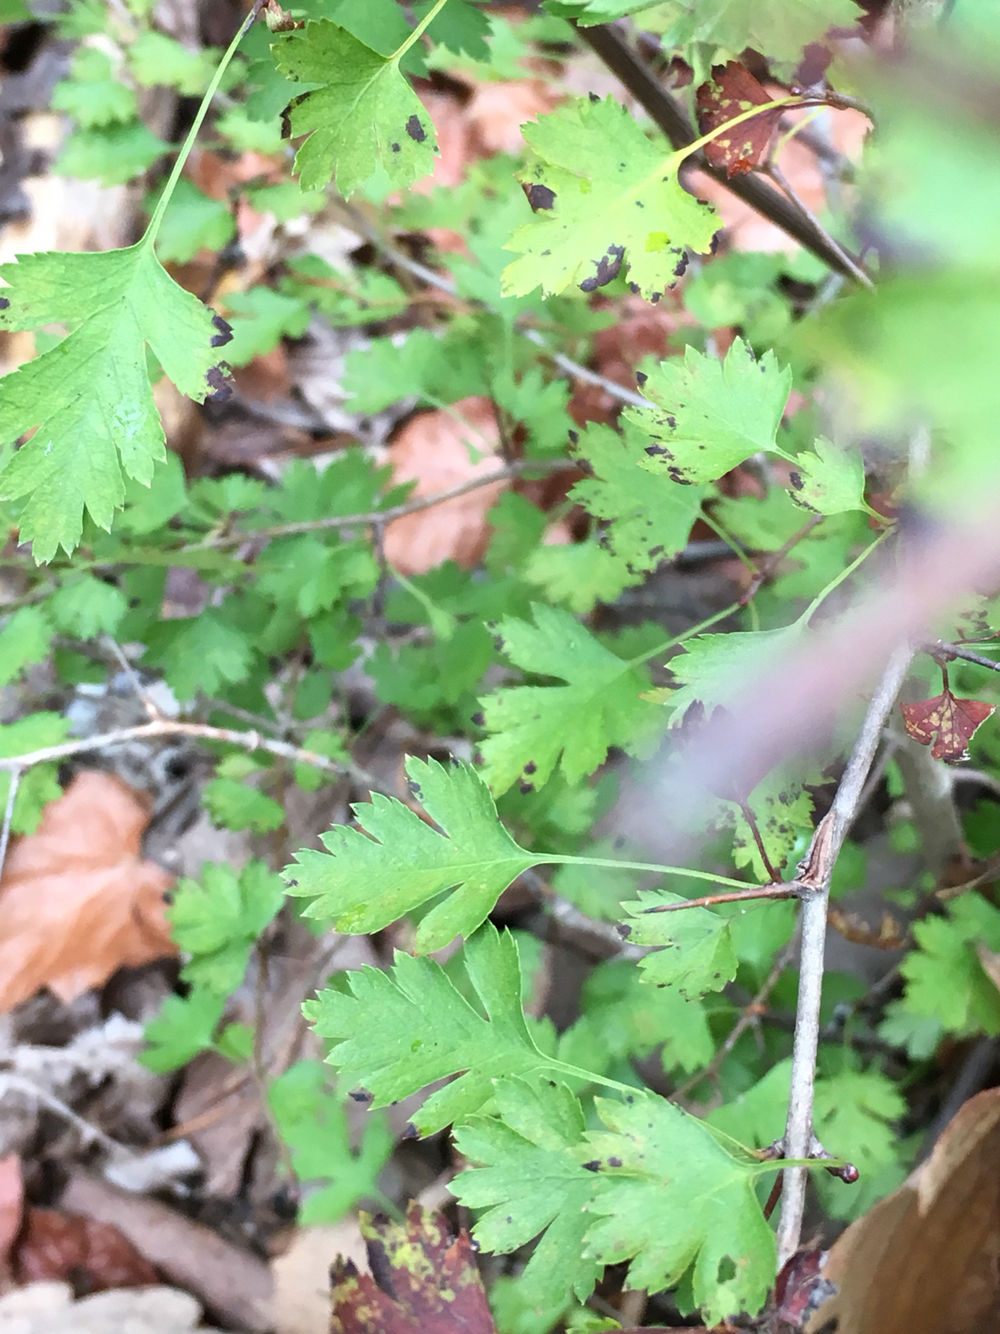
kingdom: Plantae
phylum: Tracheophyta
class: Magnoliopsida
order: Rosales
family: Rosaceae
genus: Crataegus
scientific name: Crataegus marshallii
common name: Parsley-hawthorn
